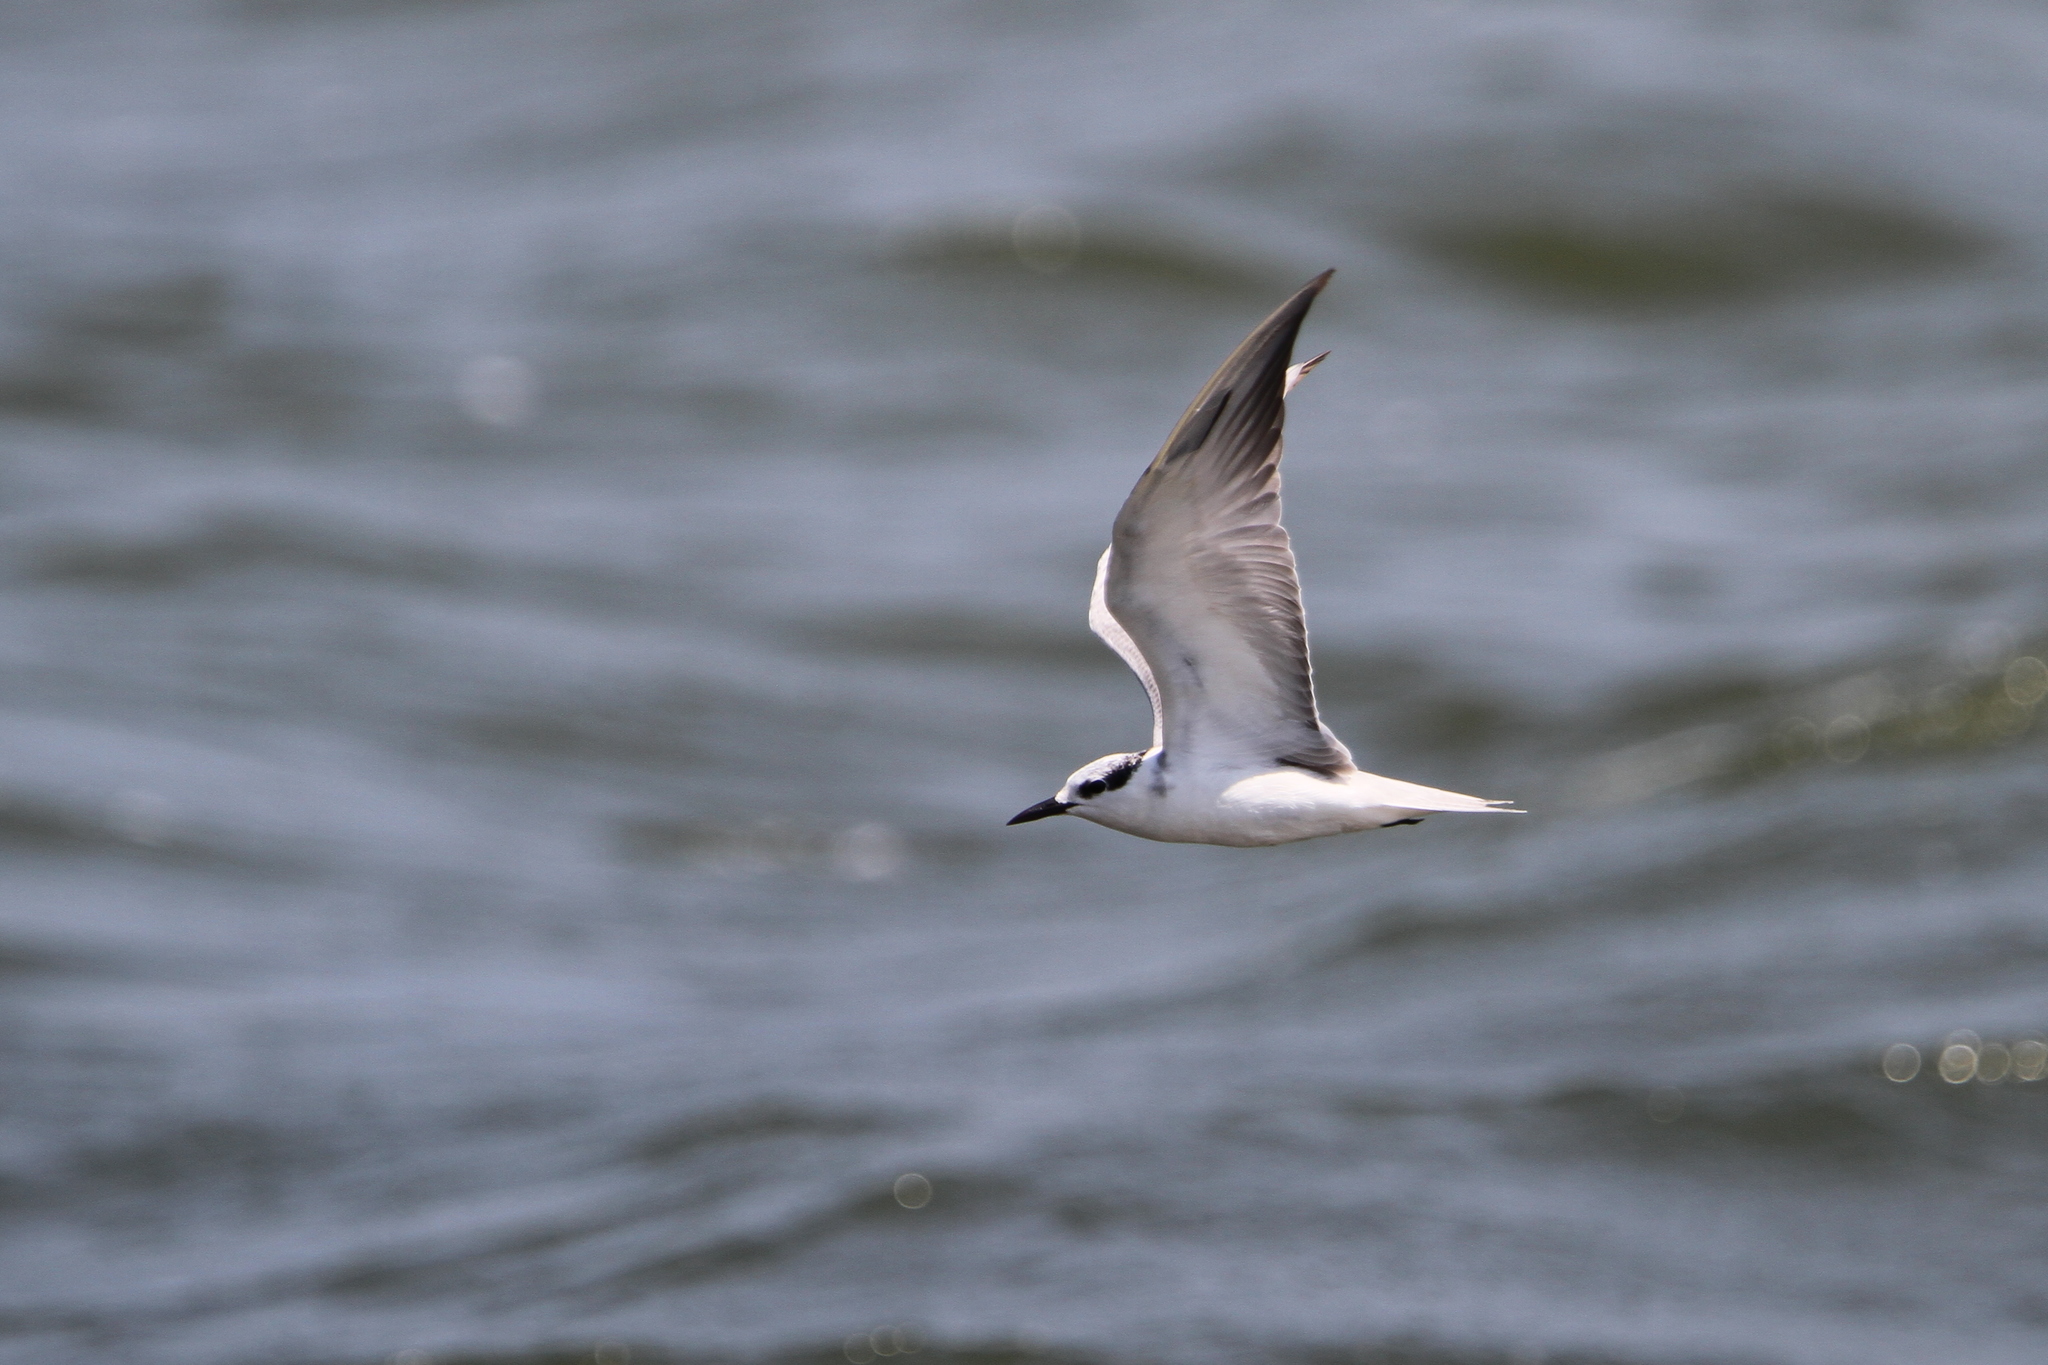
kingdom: Animalia
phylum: Chordata
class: Aves
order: Charadriiformes
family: Laridae
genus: Chlidonias
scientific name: Chlidonias hybrida
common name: Whiskered tern
